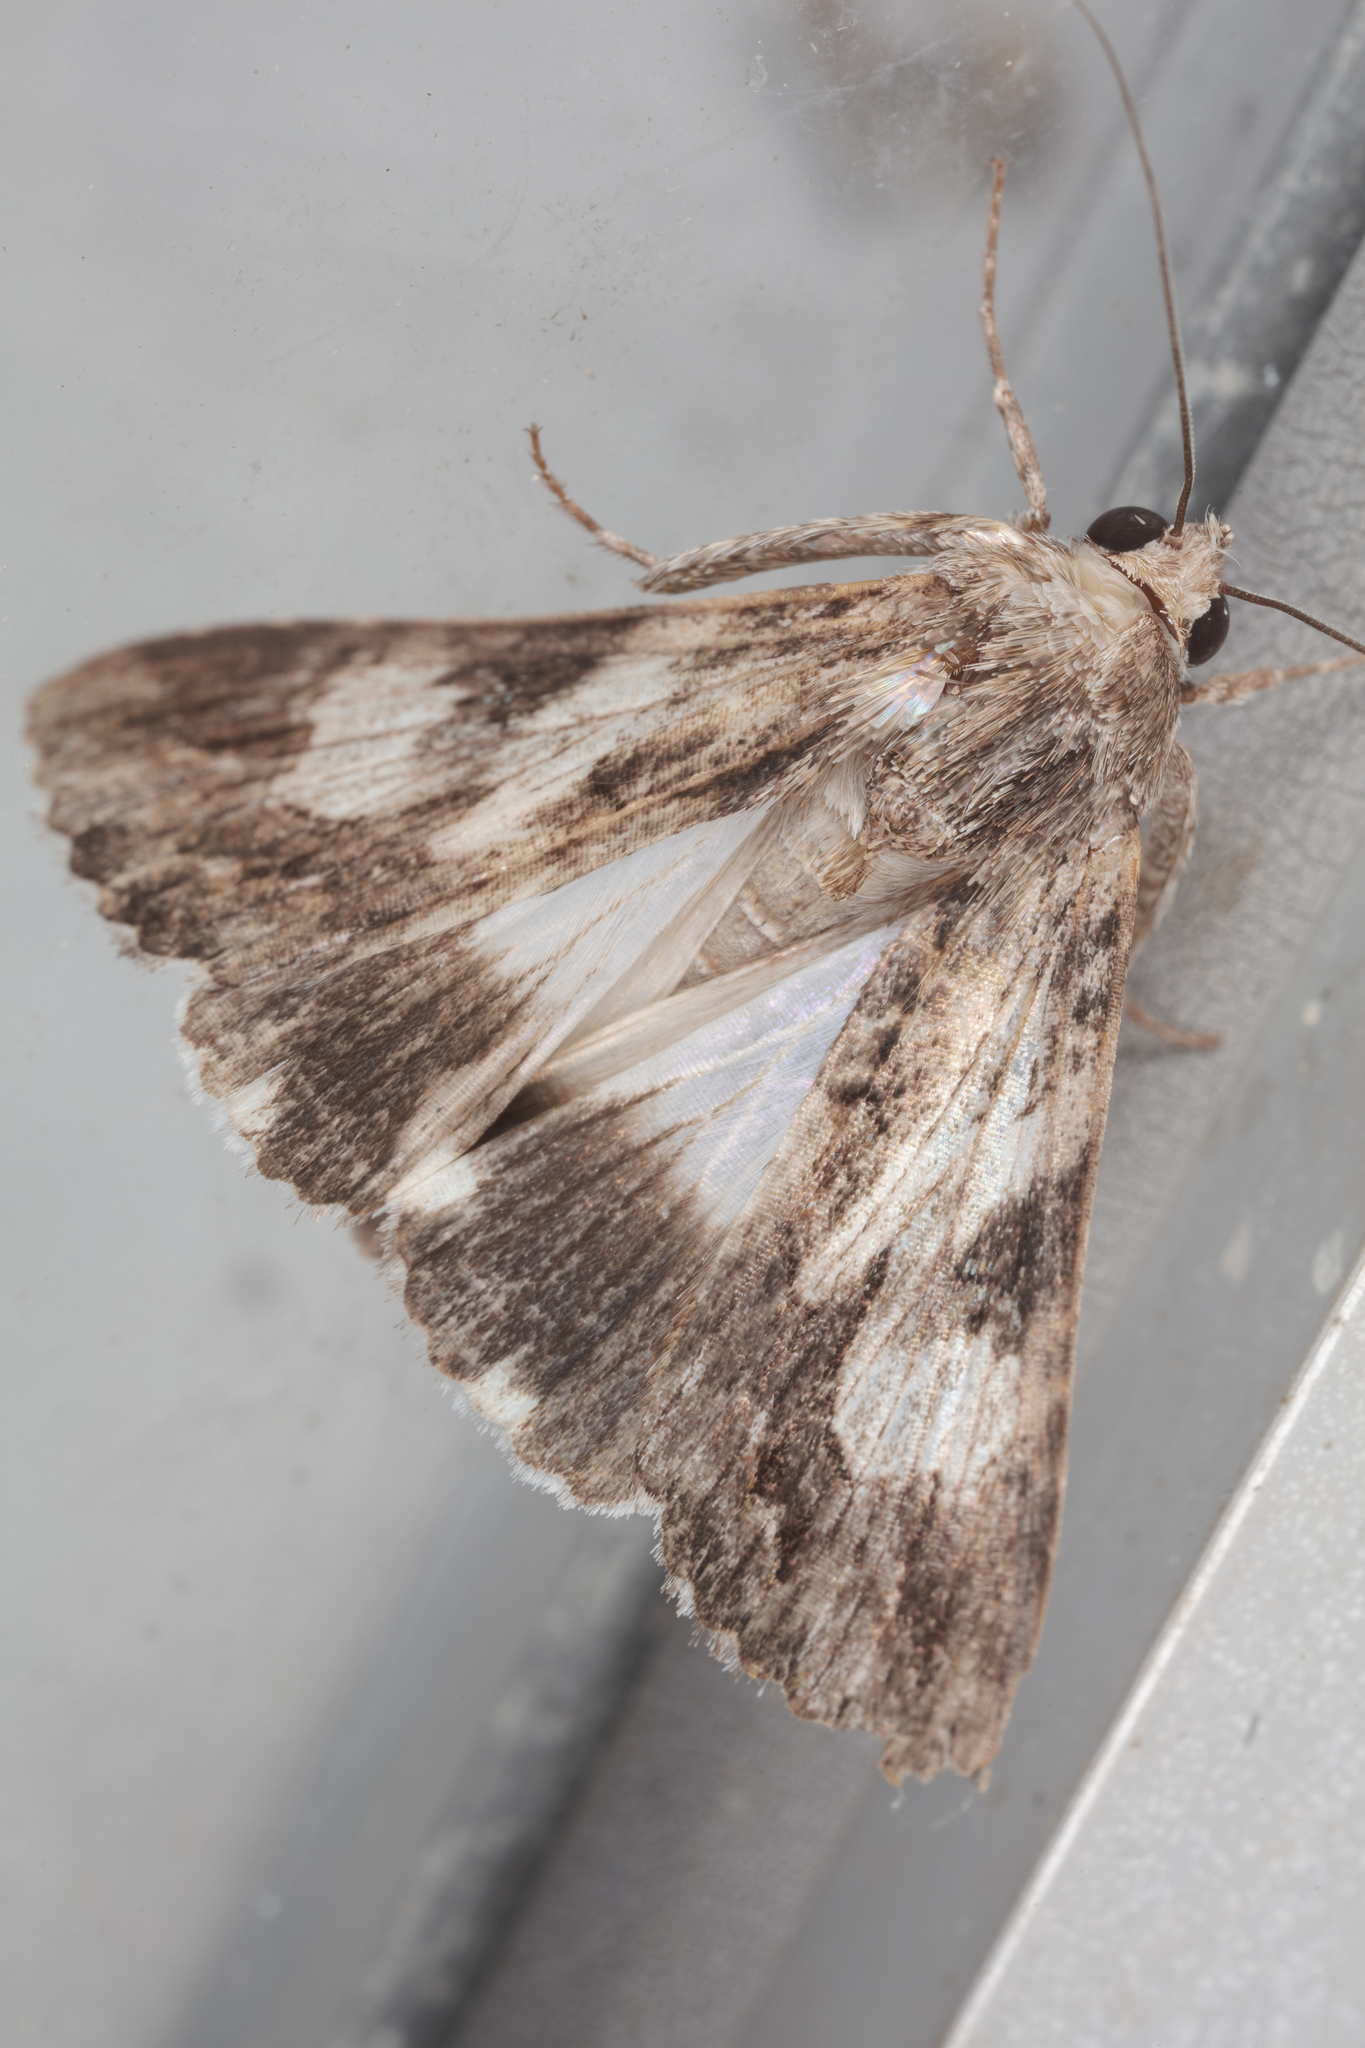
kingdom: Animalia
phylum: Arthropoda
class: Insecta
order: Lepidoptera
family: Erebidae
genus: Melipotis
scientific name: Melipotis jucunda
